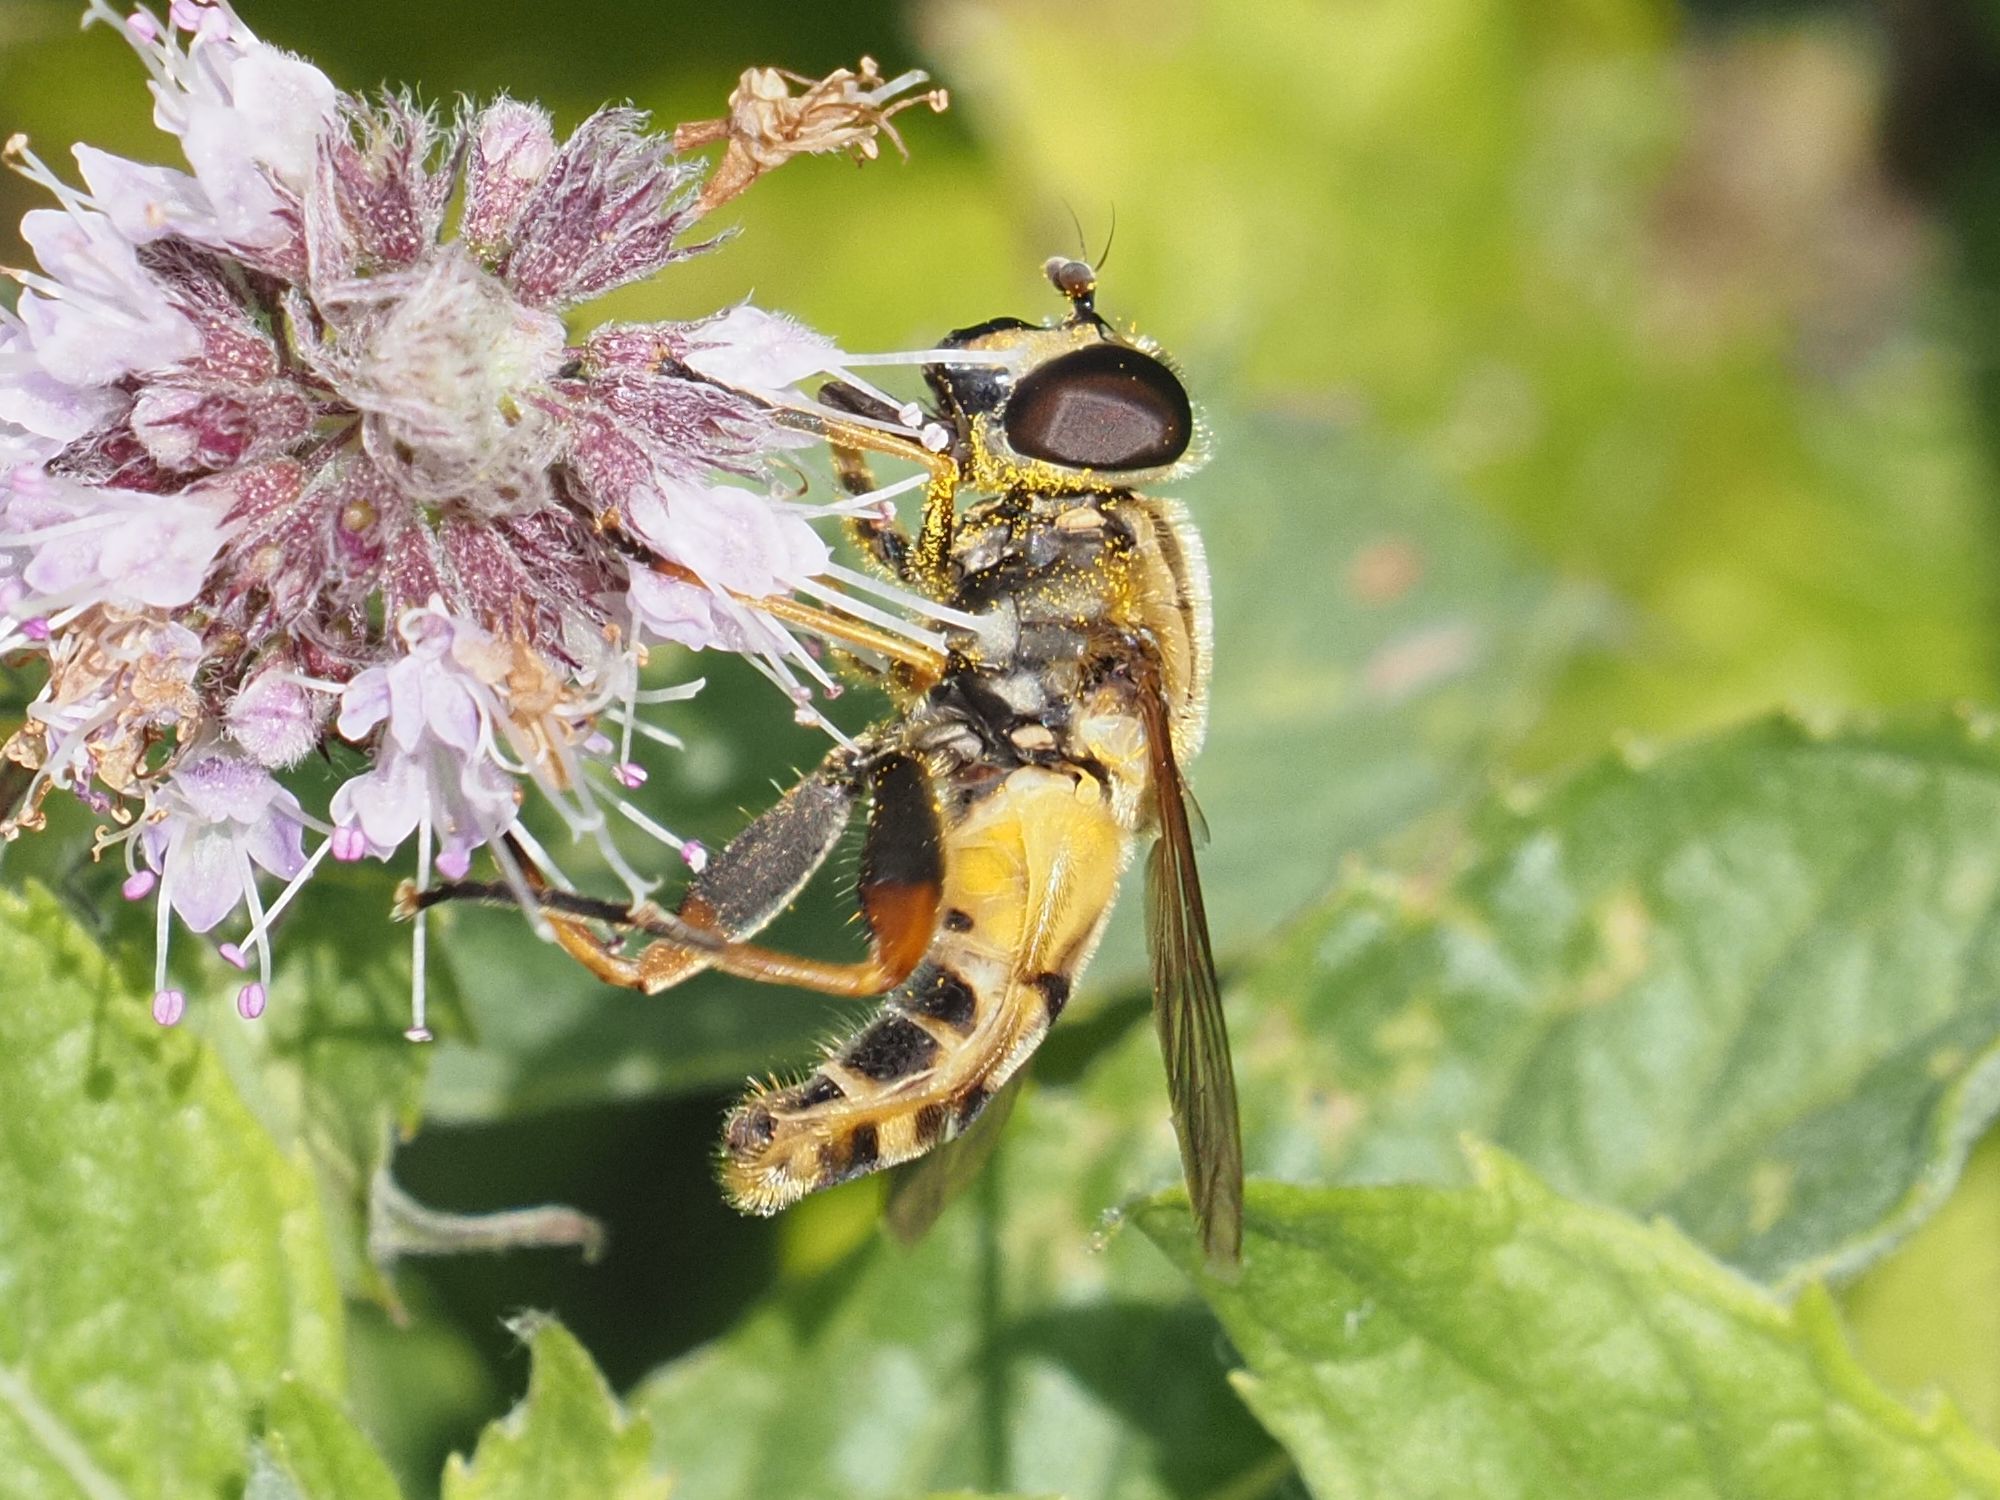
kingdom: Animalia
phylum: Arthropoda
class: Insecta
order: Diptera
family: Syrphidae
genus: Helophilus
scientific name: Helophilus pendulus
